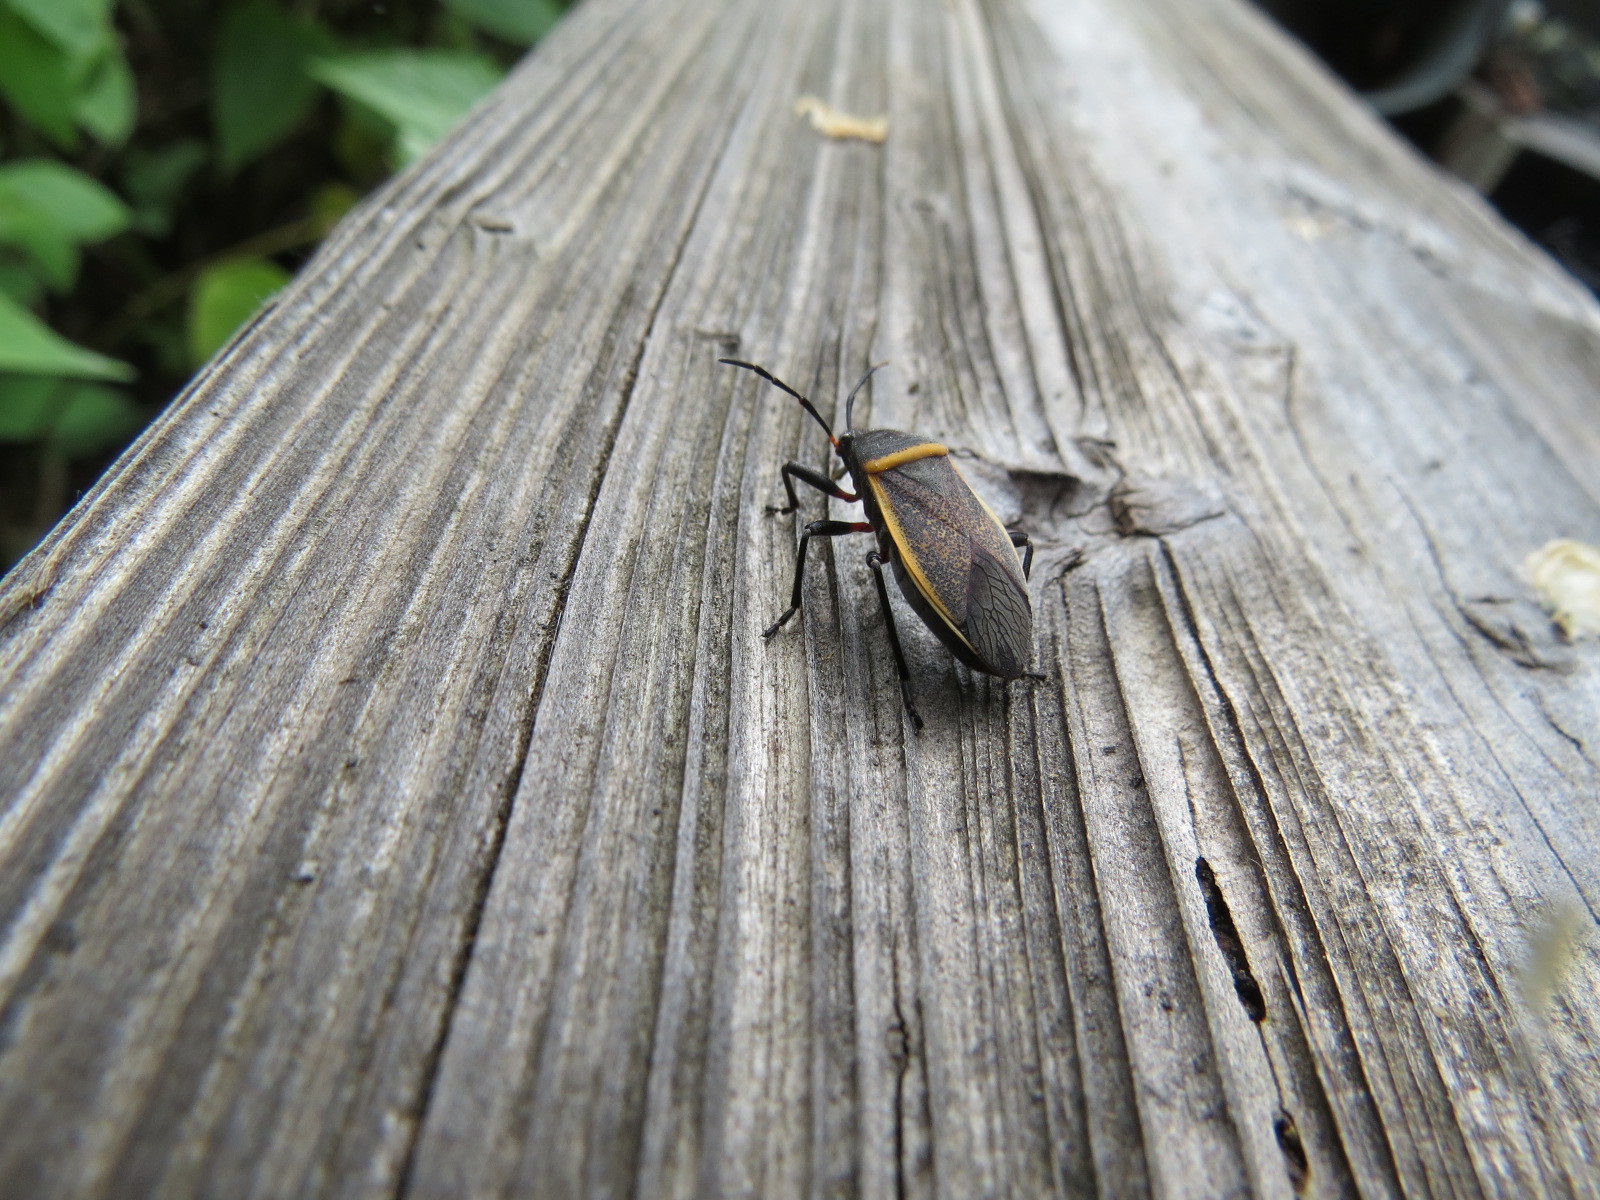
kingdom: Animalia
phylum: Arthropoda
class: Insecta
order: Hemiptera
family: Largidae
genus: Largus
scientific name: Largus californicus
